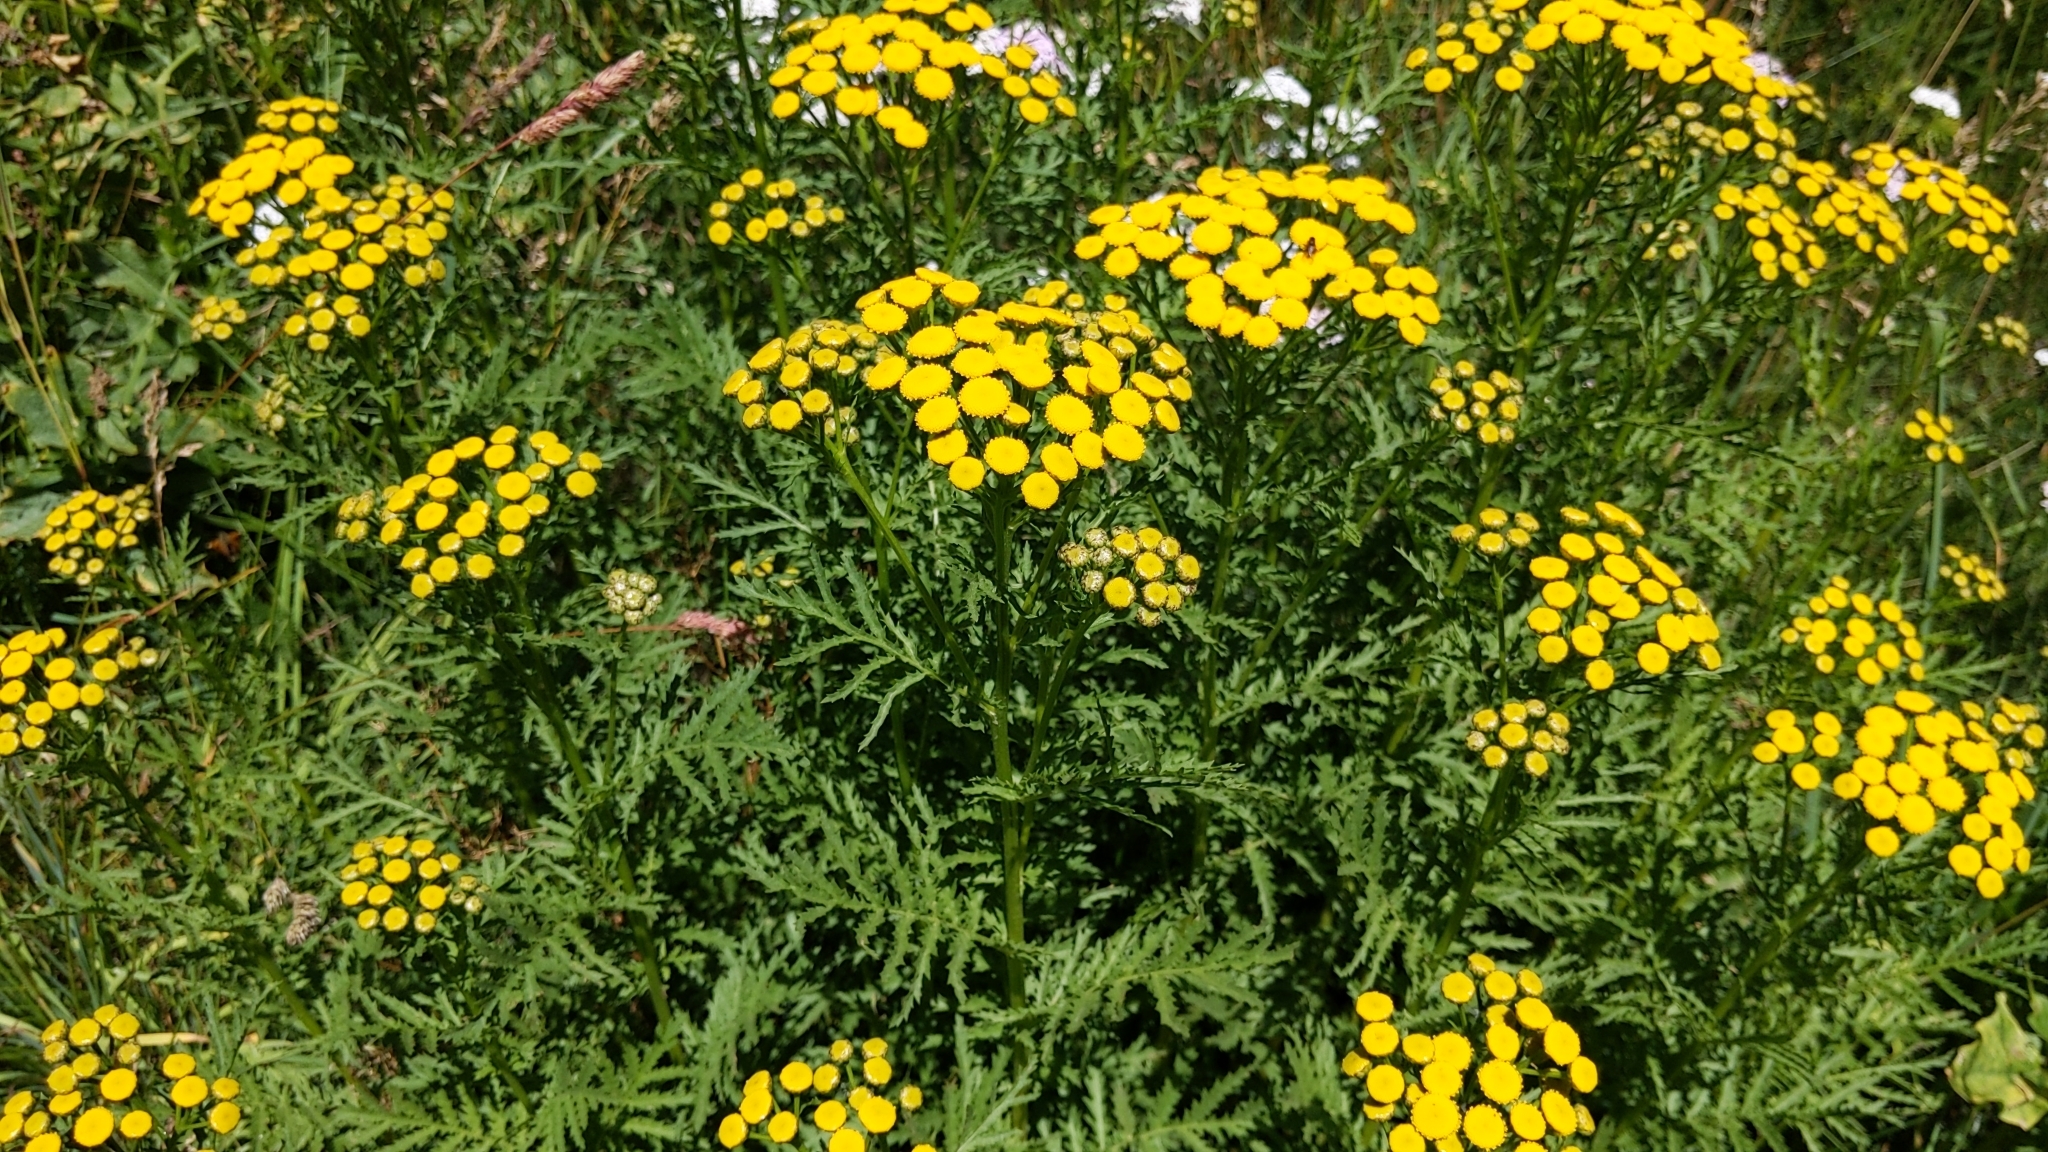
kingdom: Plantae
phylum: Tracheophyta
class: Magnoliopsida
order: Asterales
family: Asteraceae
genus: Tanacetum
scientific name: Tanacetum vulgare
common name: Common tansy
